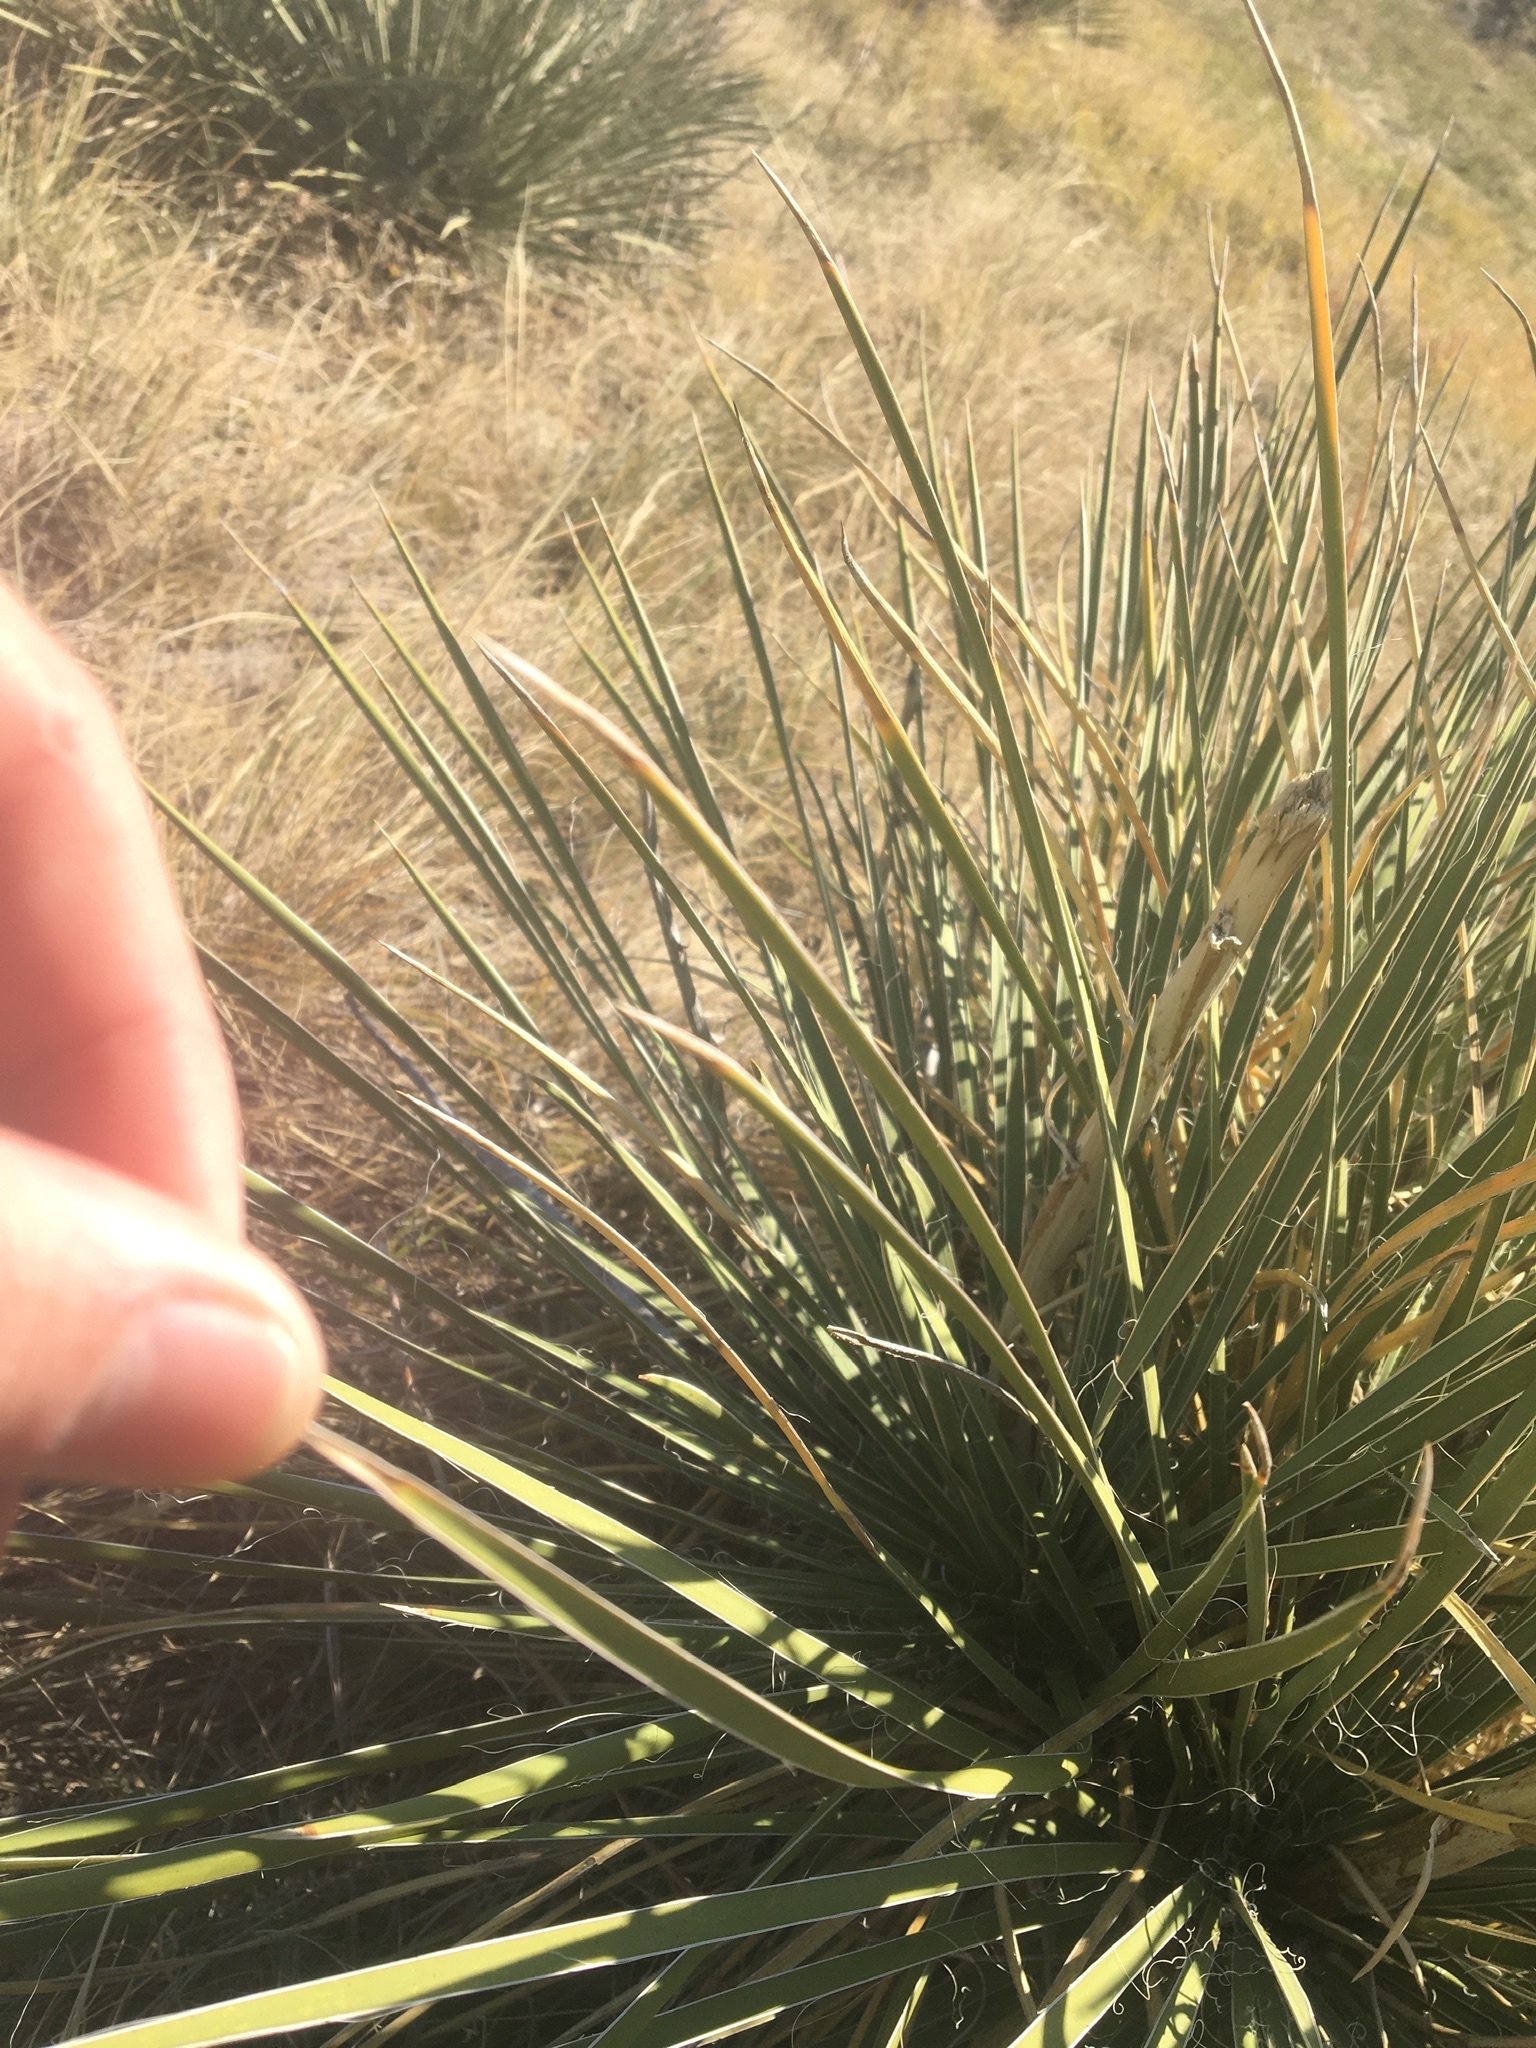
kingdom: Plantae
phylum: Tracheophyta
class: Liliopsida
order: Asparagales
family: Asparagaceae
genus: Yucca
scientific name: Yucca glauca
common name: Great plains yucca
